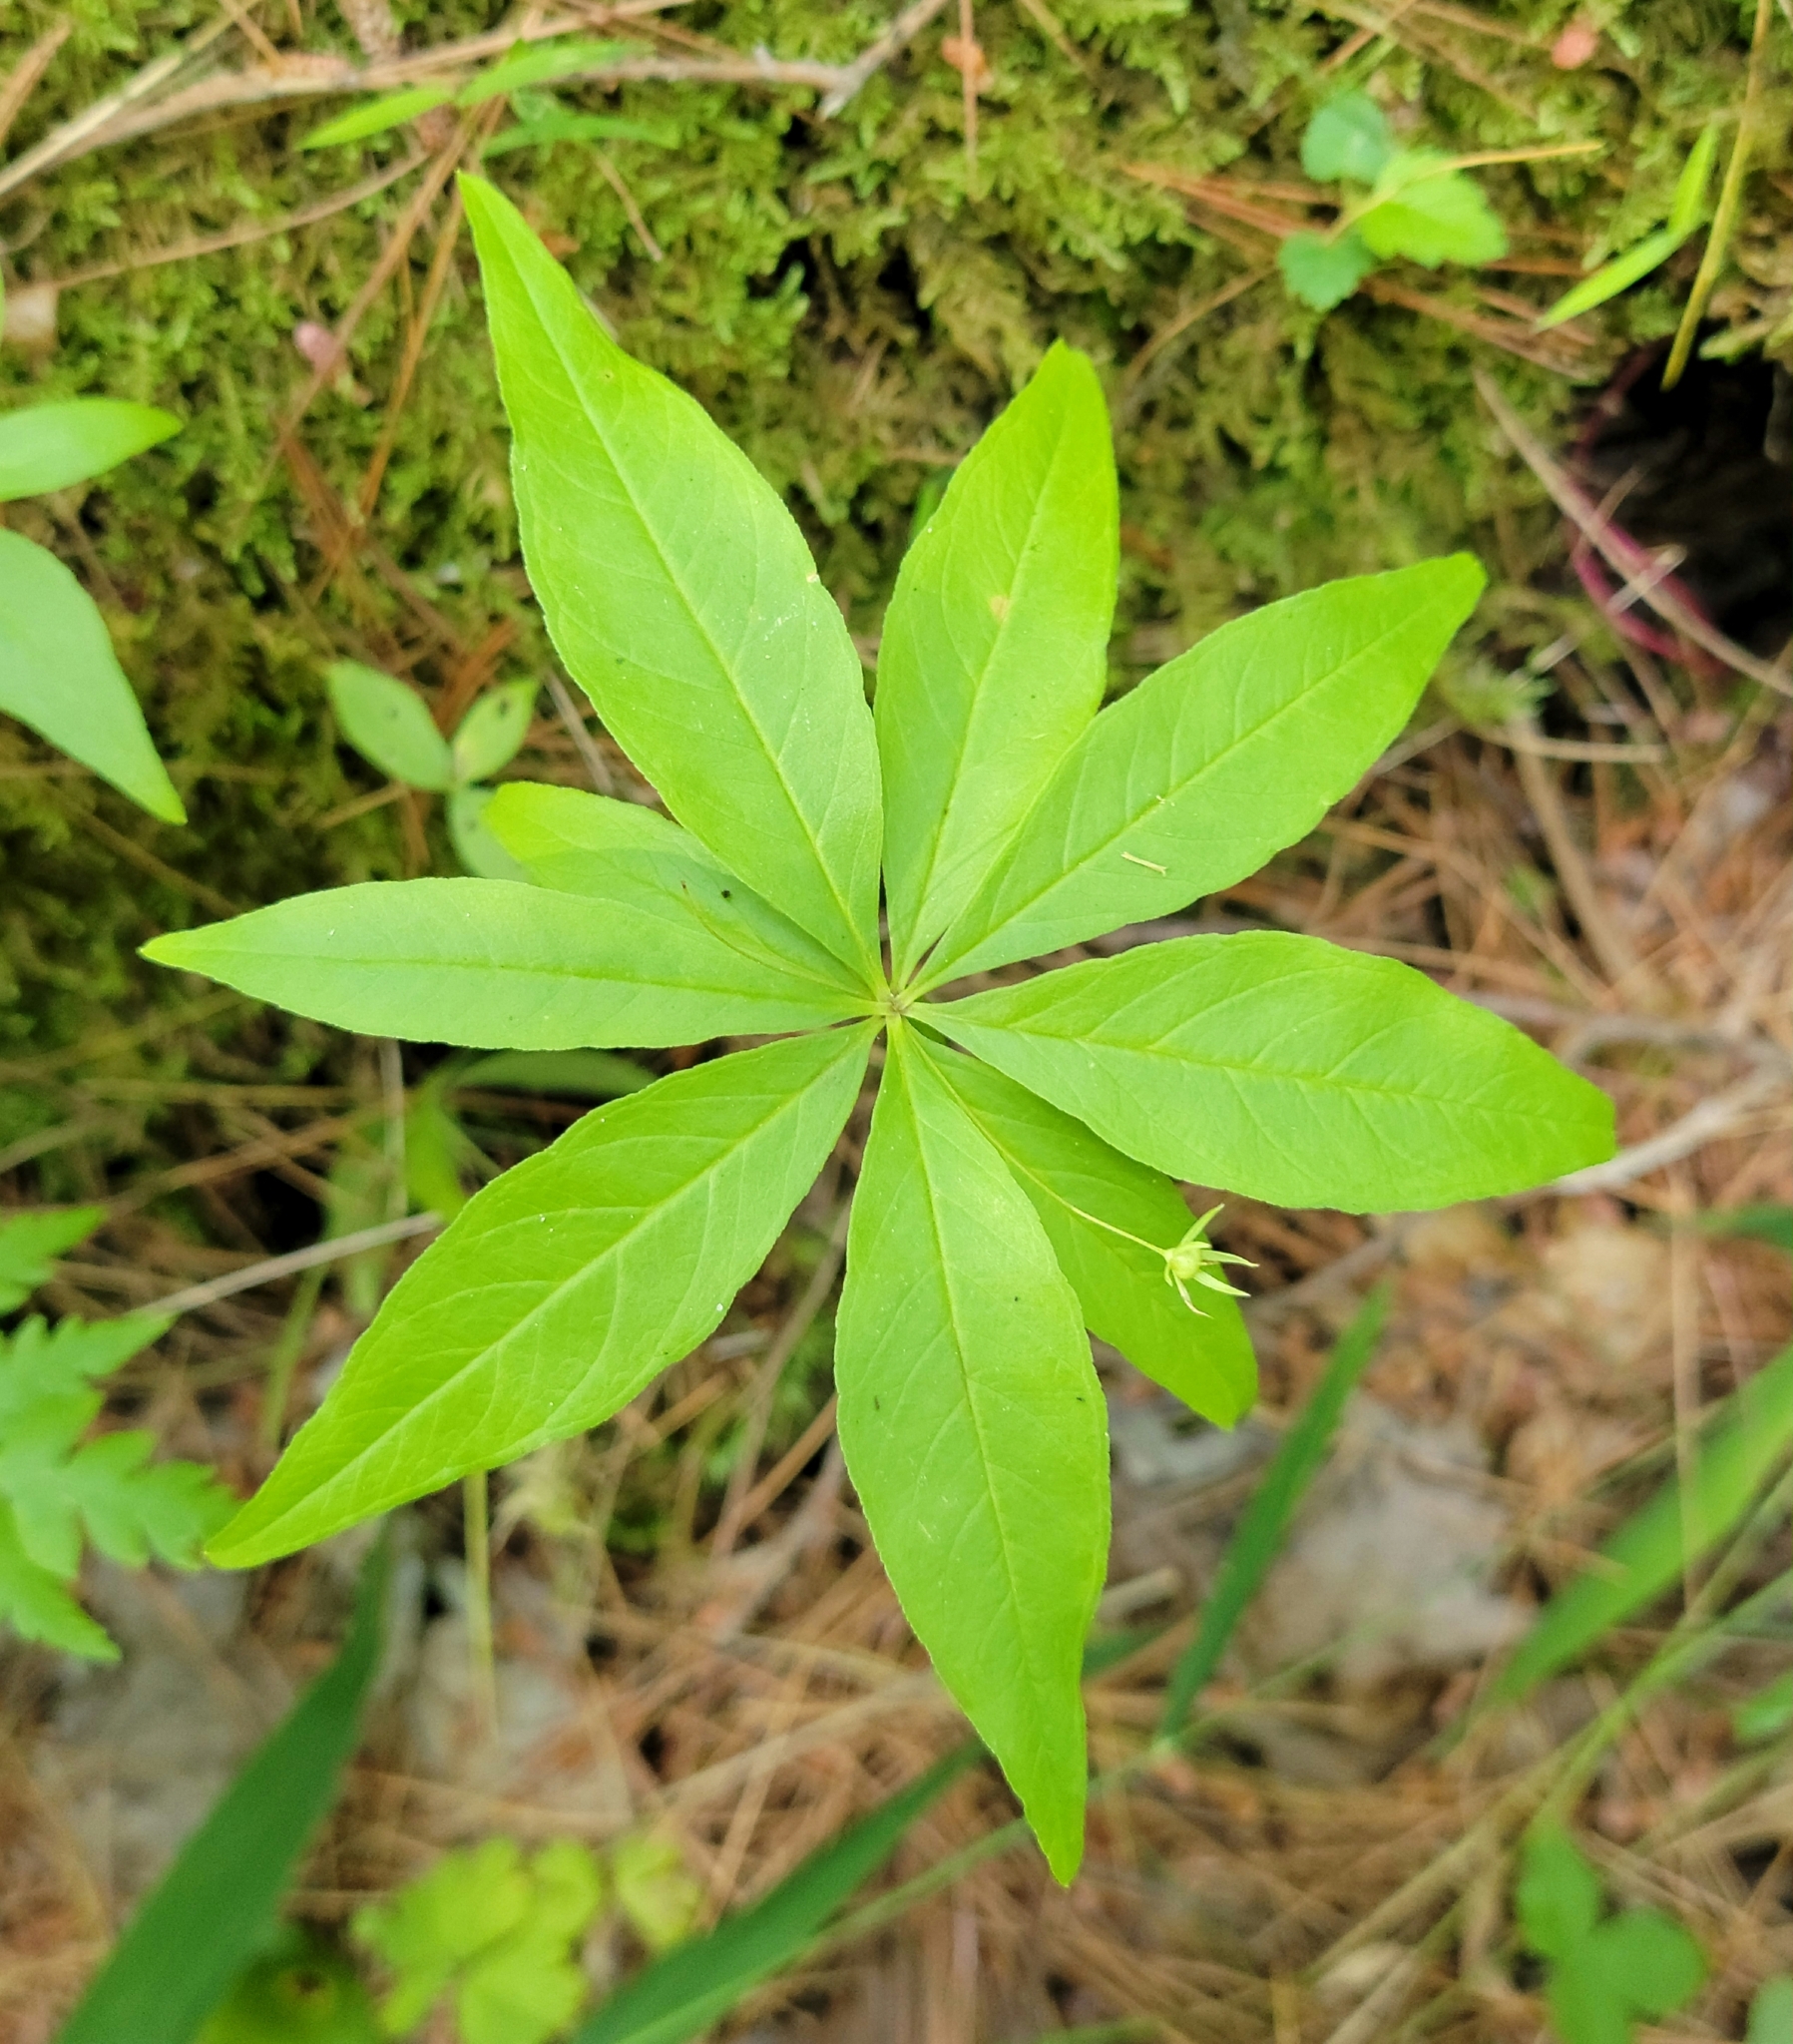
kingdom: Plantae
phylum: Tracheophyta
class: Magnoliopsida
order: Ericales
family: Primulaceae
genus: Lysimachia
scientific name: Lysimachia borealis
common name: American starflower
